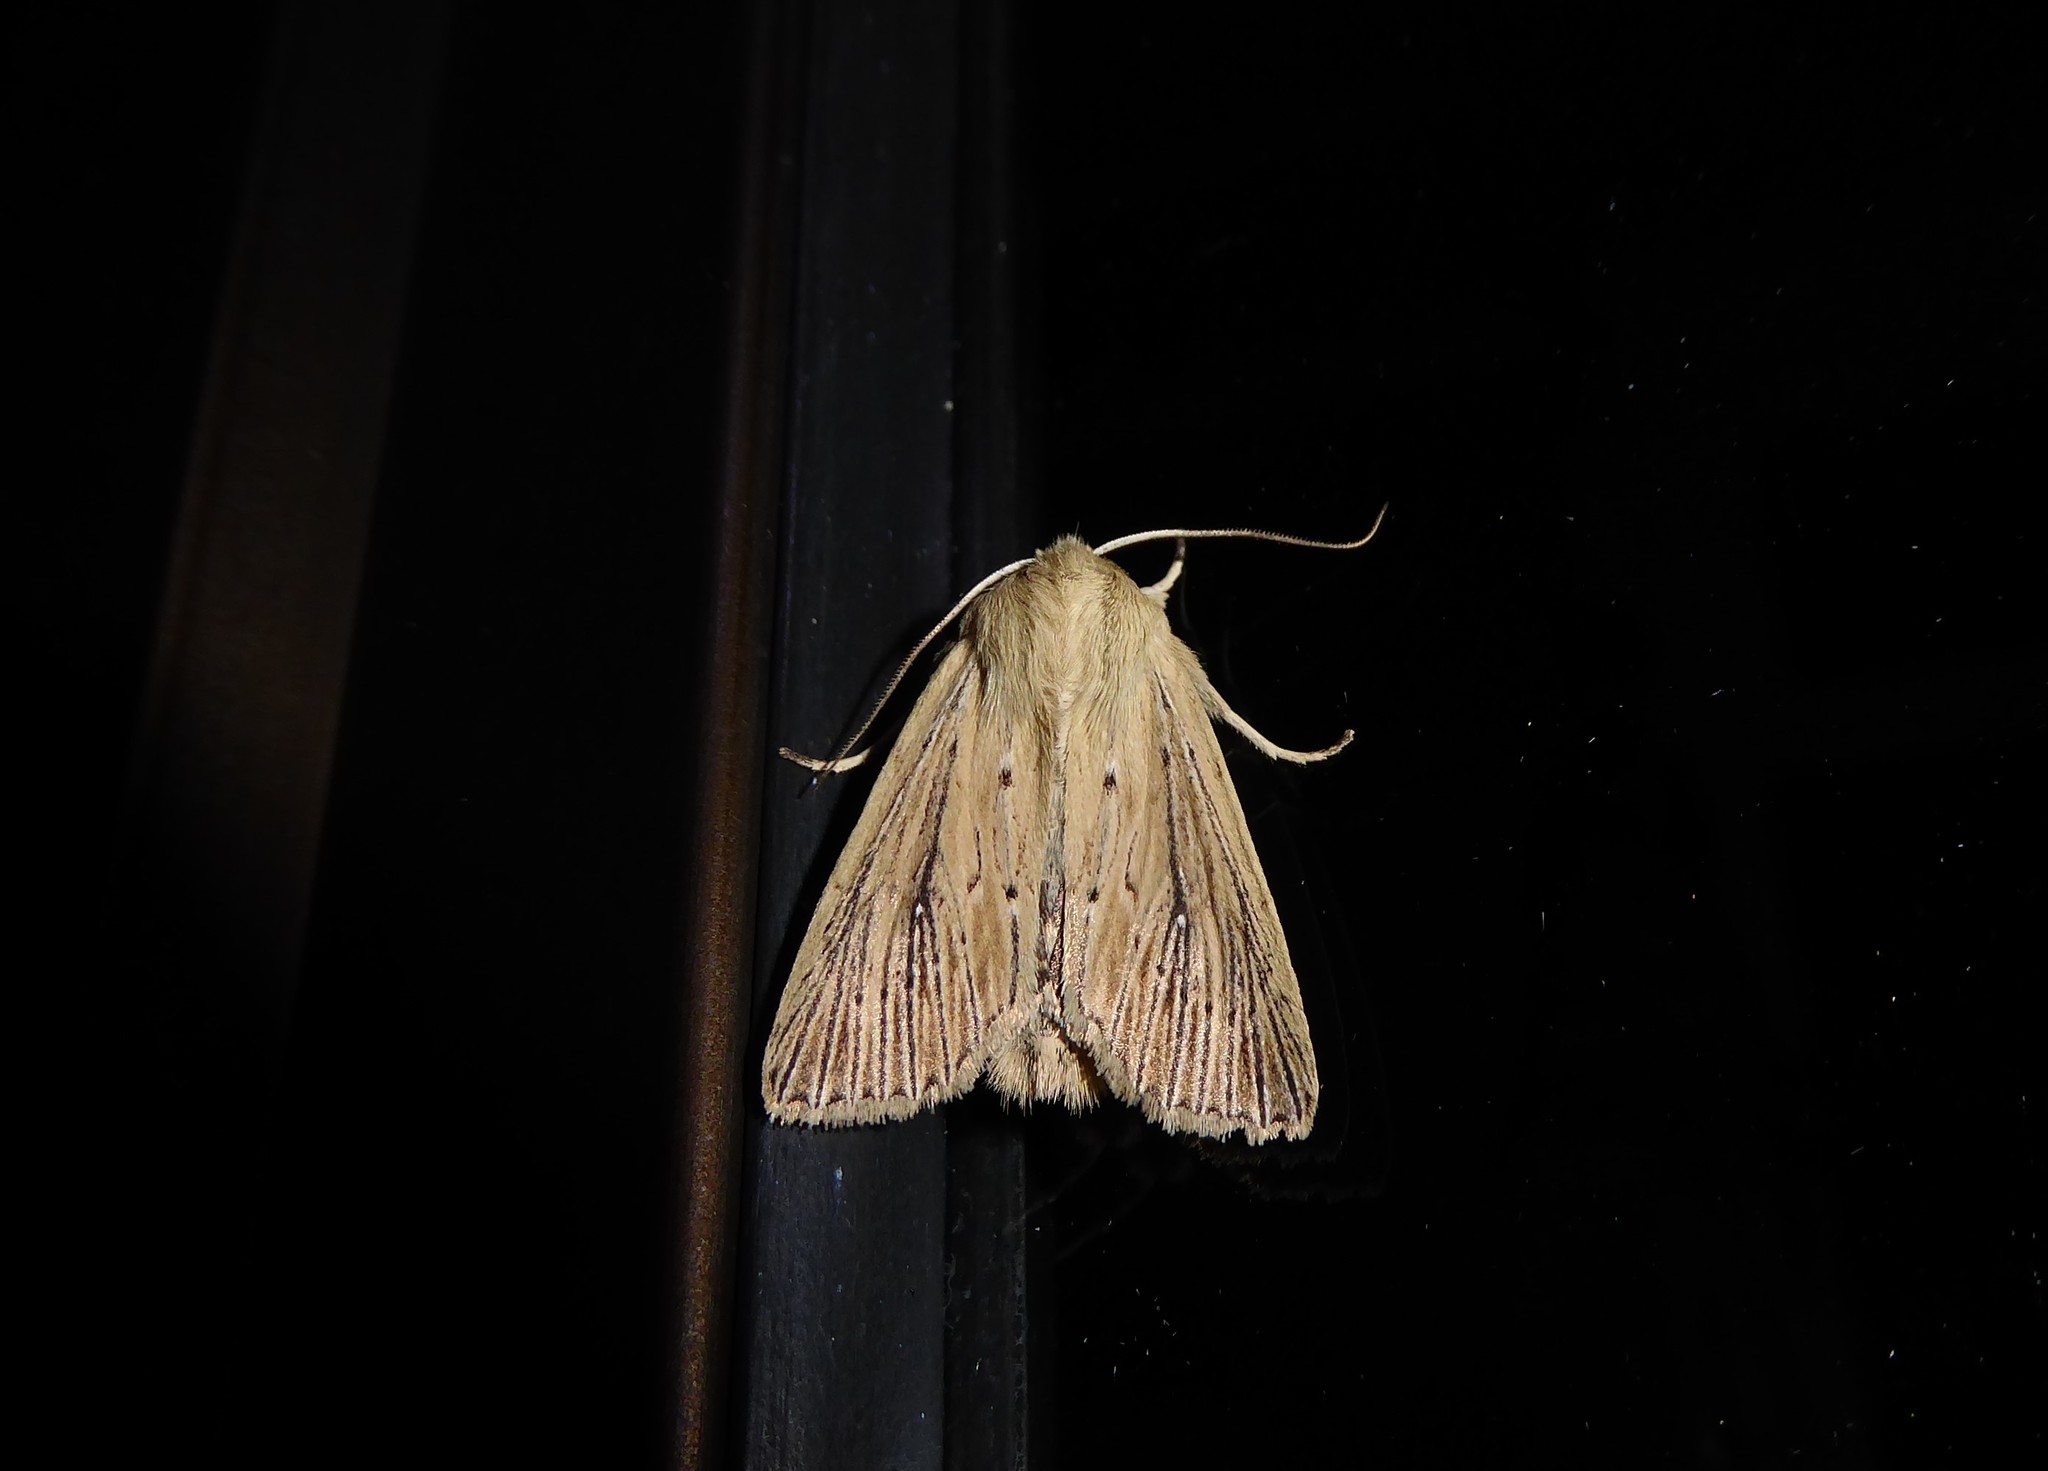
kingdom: Animalia
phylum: Arthropoda
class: Insecta
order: Lepidoptera
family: Noctuidae
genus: Ichneutica
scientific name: Ichneutica arotis
